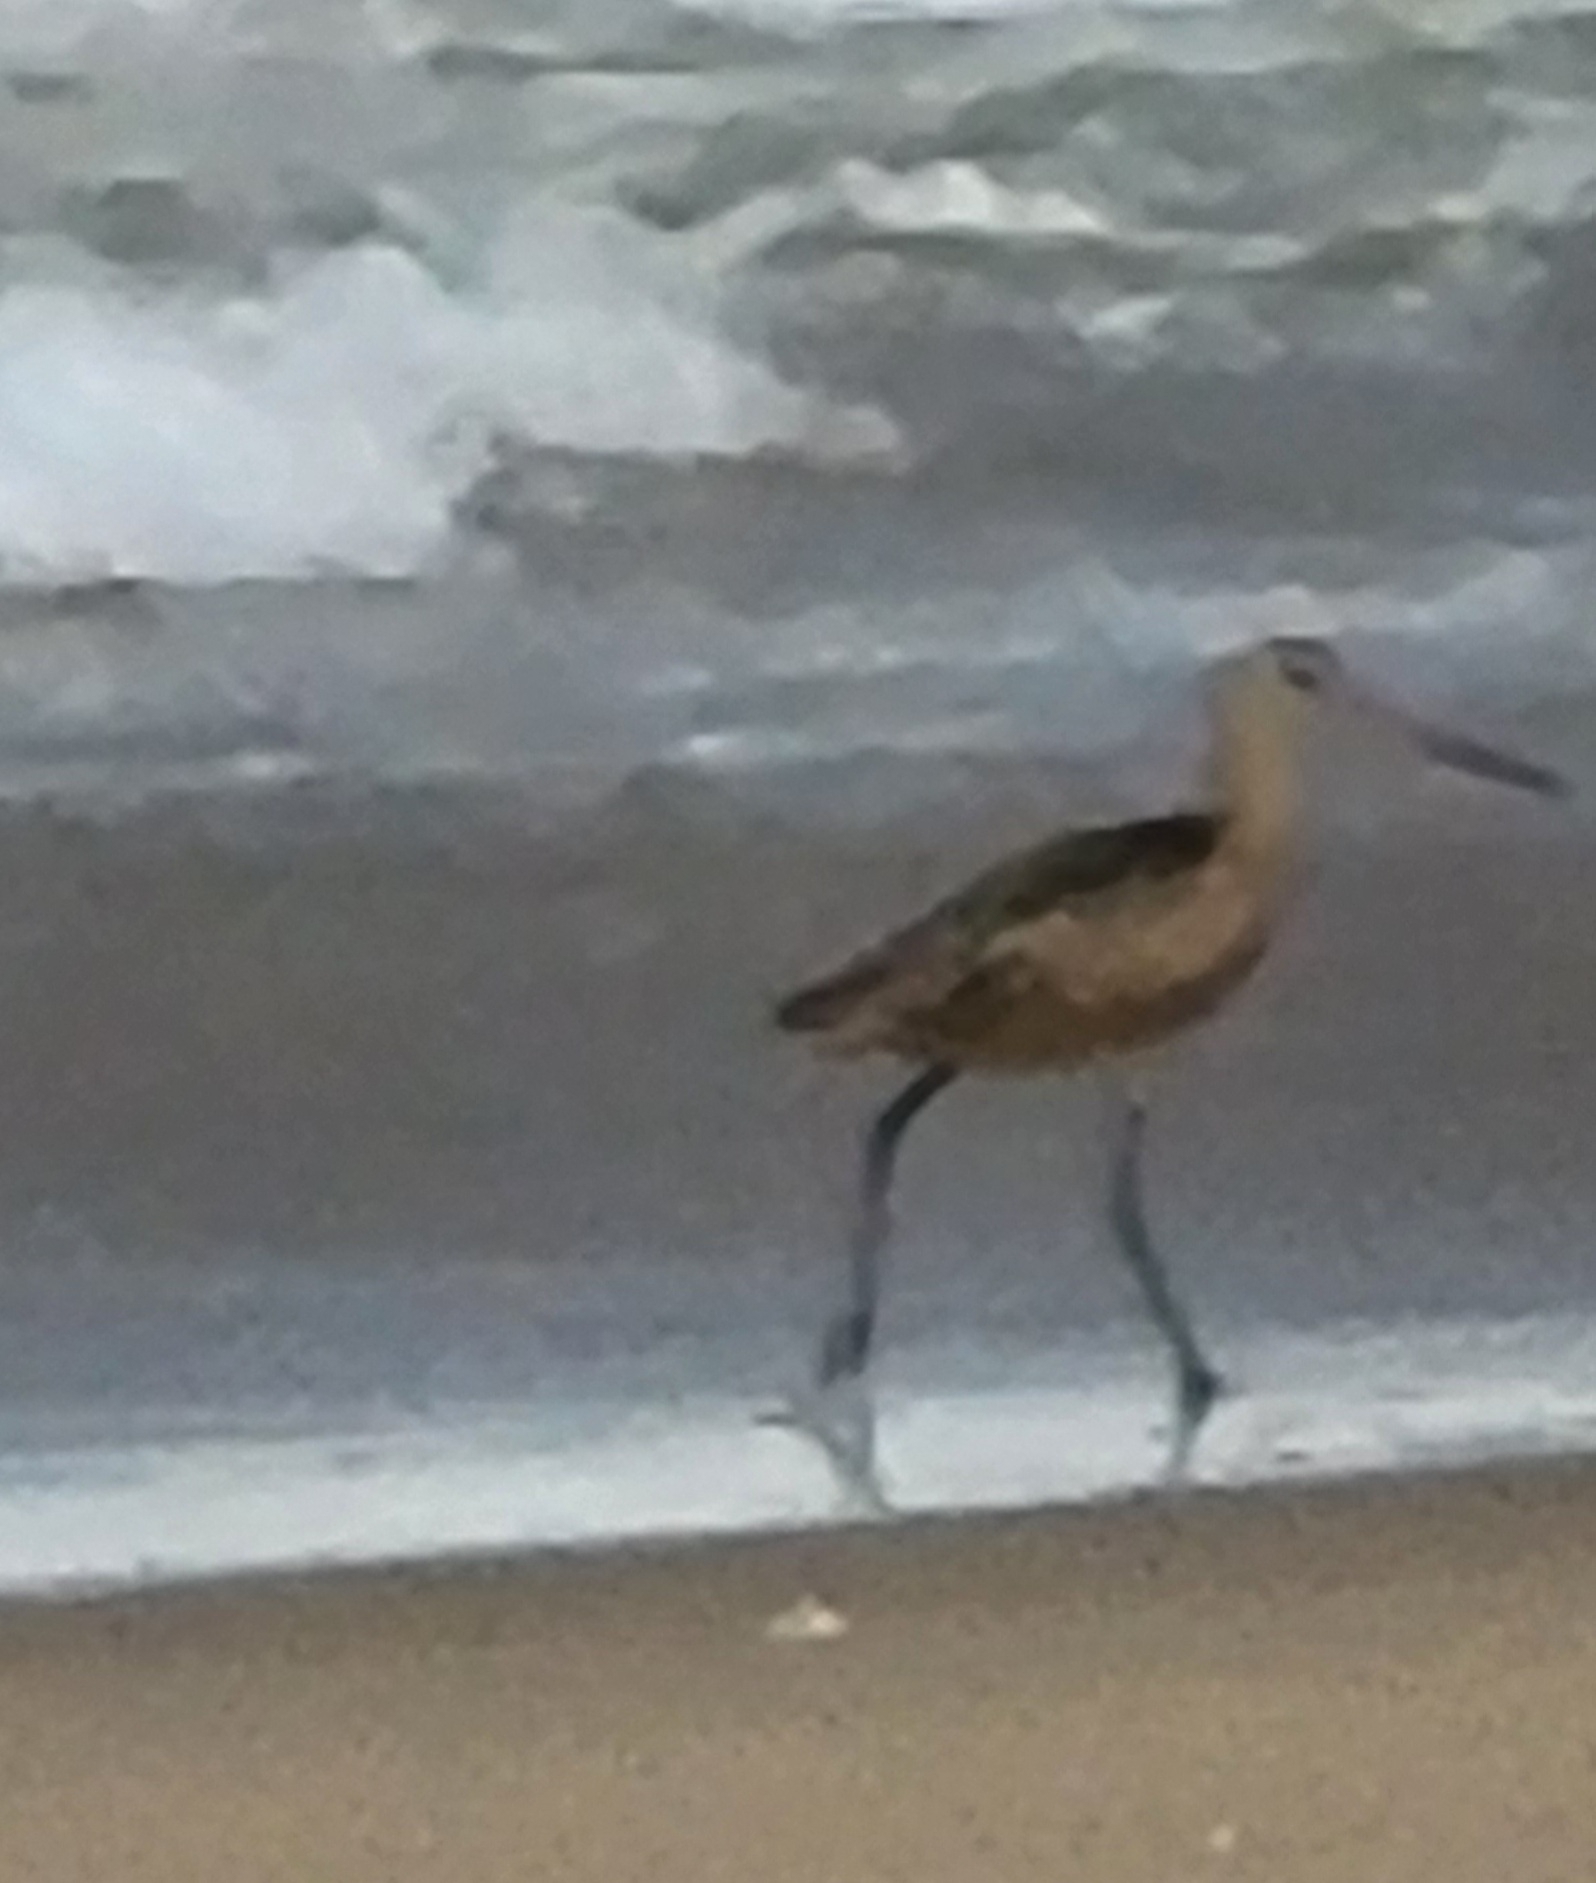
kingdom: Animalia
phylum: Chordata
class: Aves
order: Charadriiformes
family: Scolopacidae
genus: Limosa
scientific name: Limosa fedoa
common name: Marbled godwit
